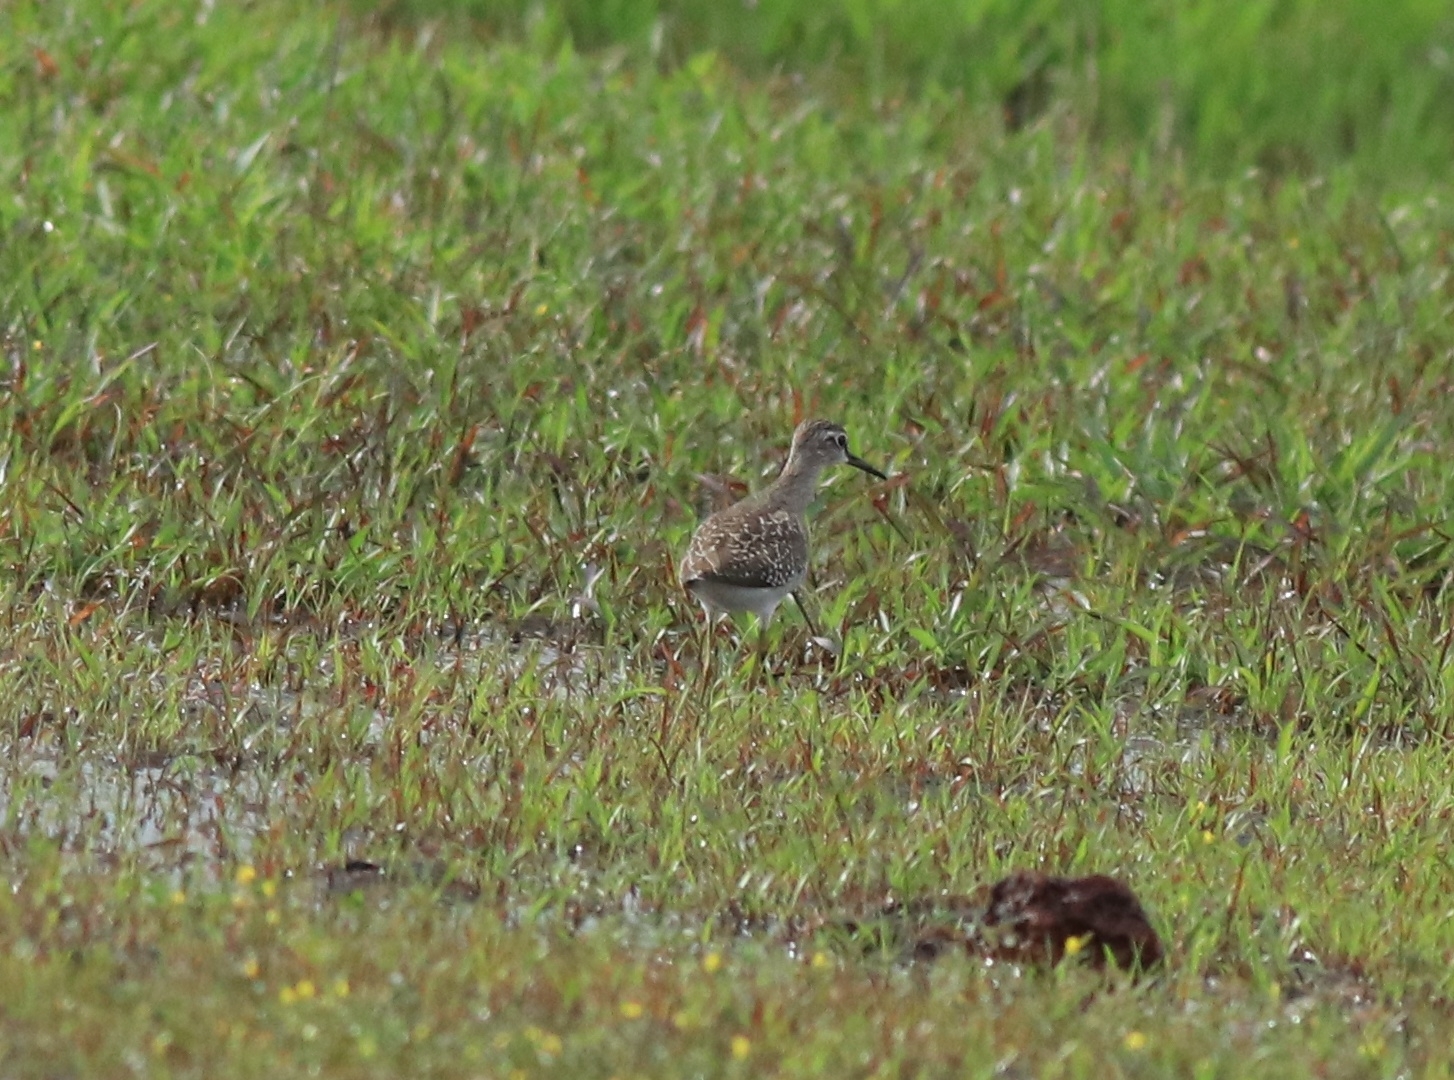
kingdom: Animalia
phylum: Chordata
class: Aves
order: Charadriiformes
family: Scolopacidae
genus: Tringa
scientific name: Tringa glareola
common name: Wood sandpiper
